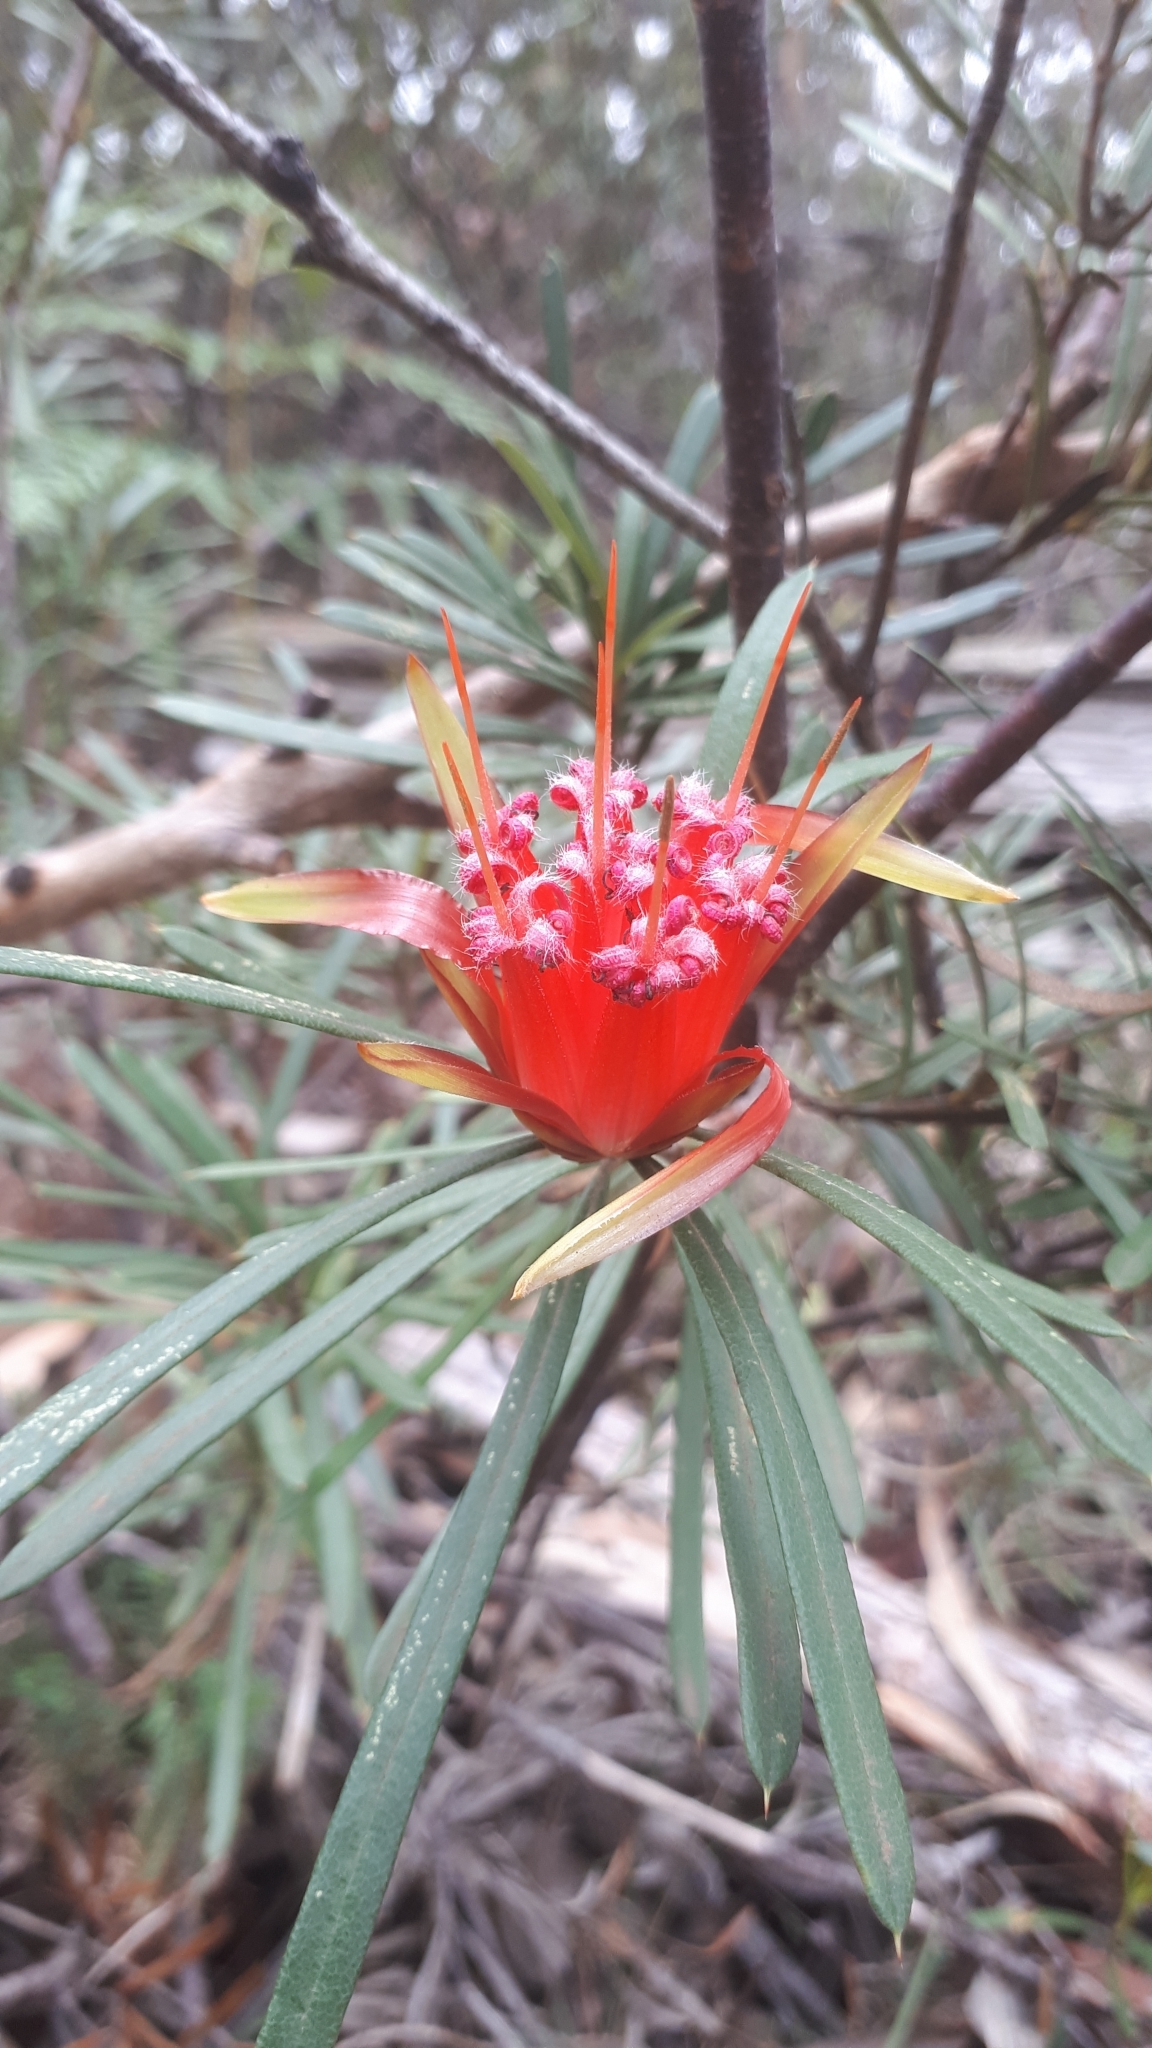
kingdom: Plantae
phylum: Tracheophyta
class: Magnoliopsida
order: Proteales
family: Proteaceae
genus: Lambertia
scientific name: Lambertia formosa
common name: Mountain-devil
